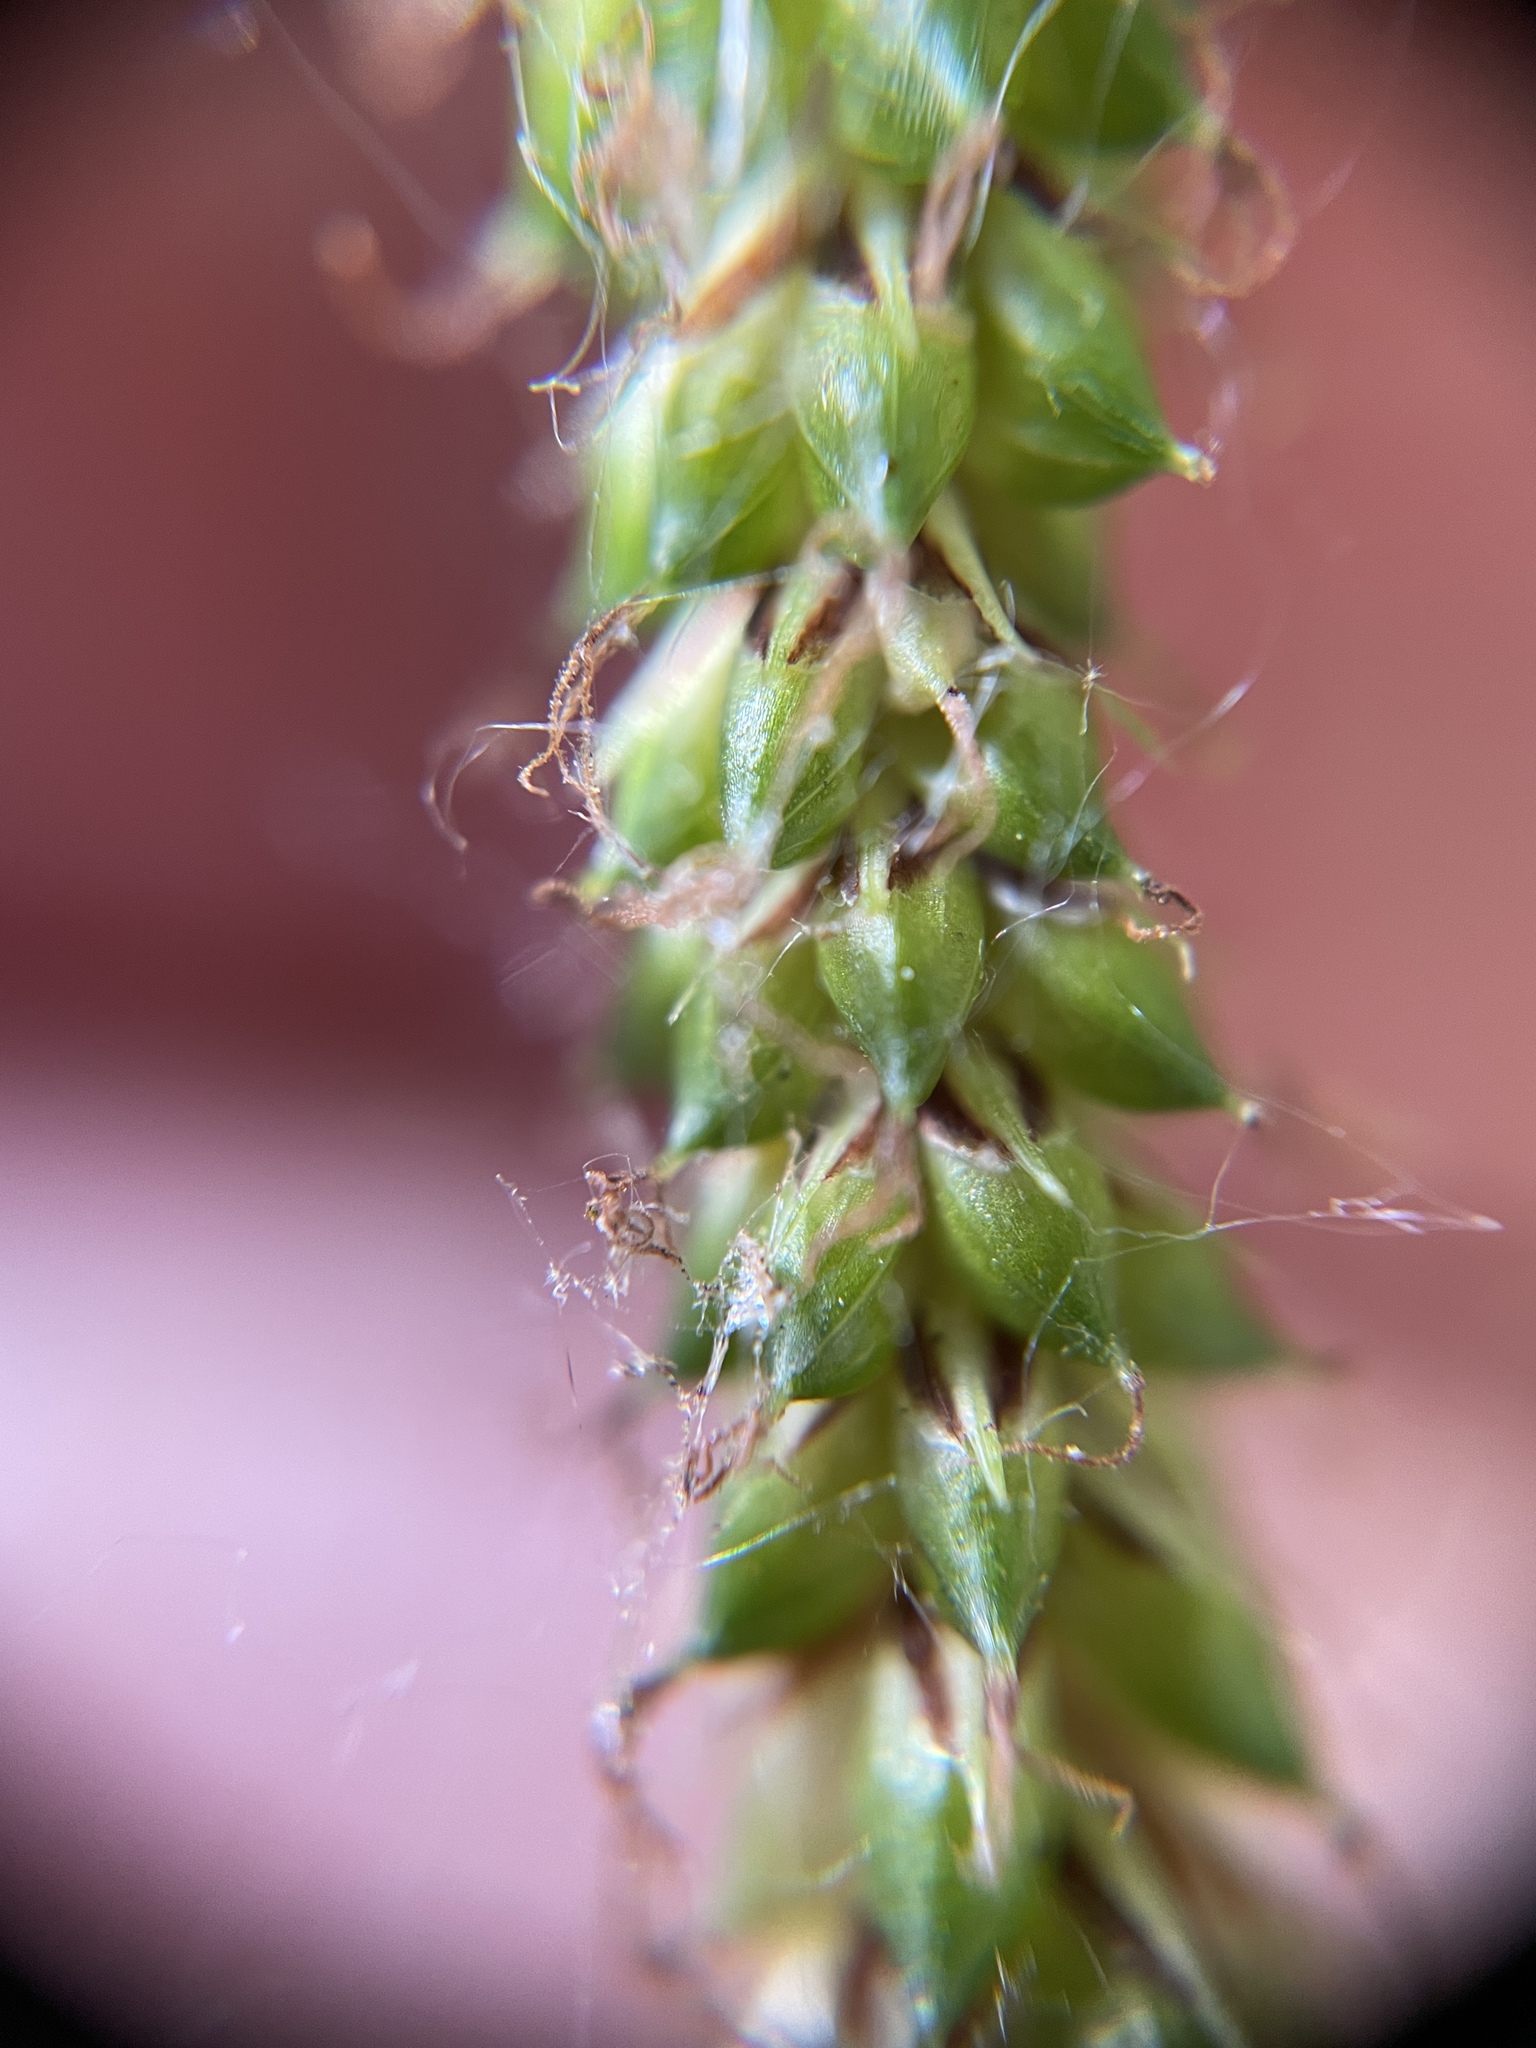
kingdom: Plantae
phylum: Tracheophyta
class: Liliopsida
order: Poales
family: Cyperaceae
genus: Carex
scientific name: Carex pendula
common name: Pendulous sedge
